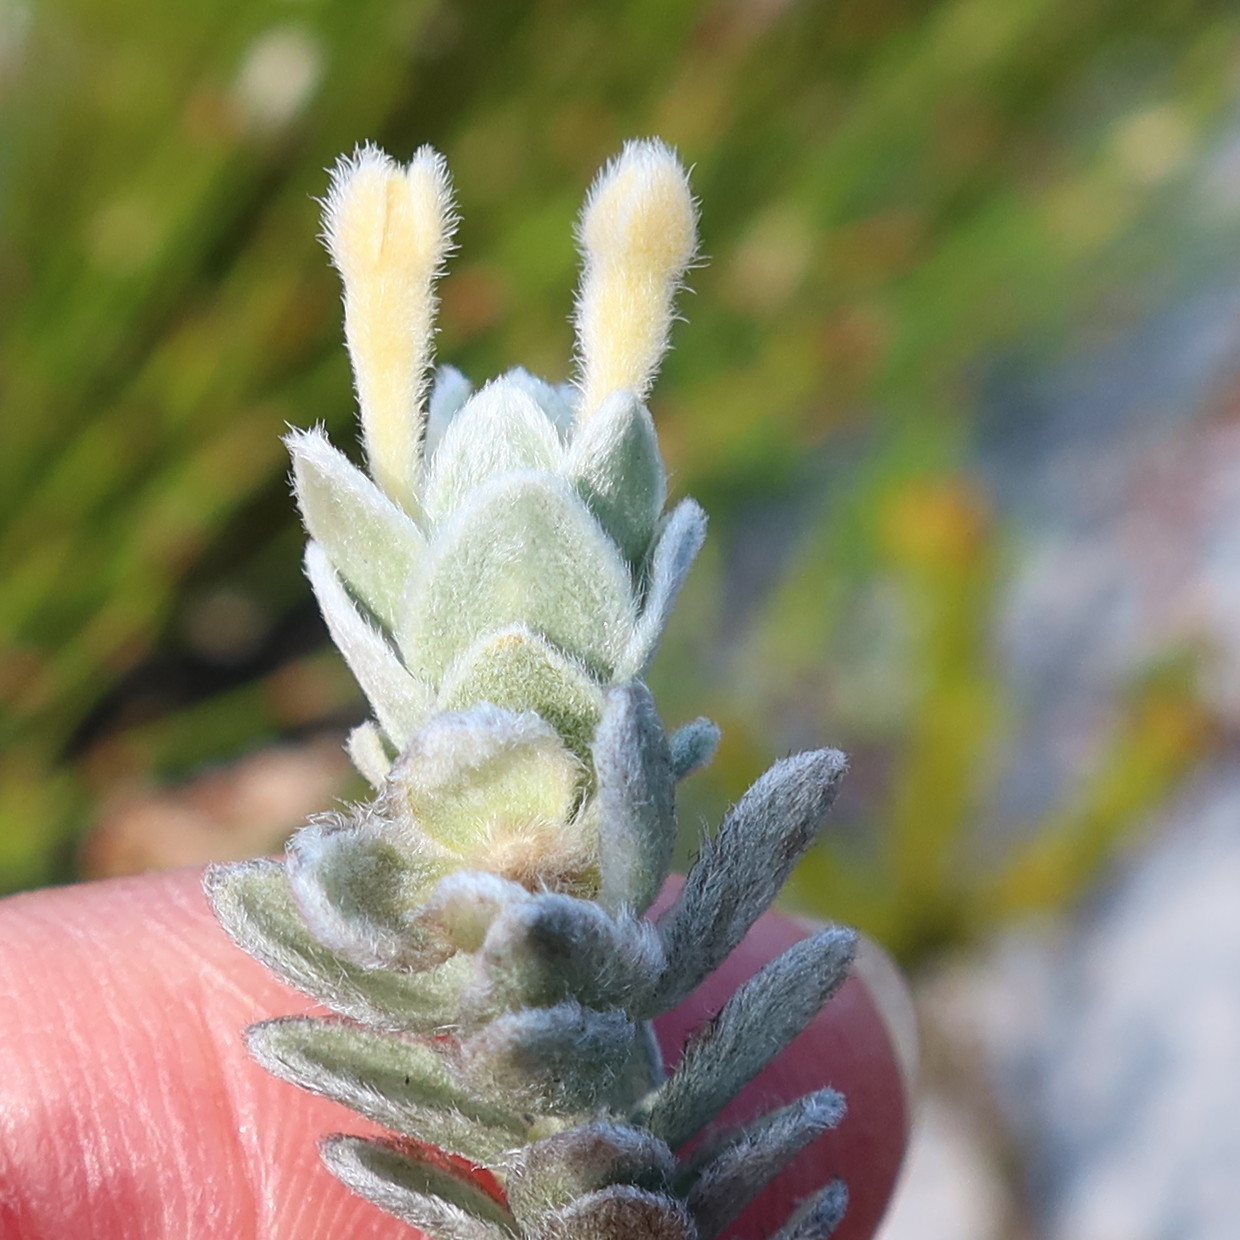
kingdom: Plantae
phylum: Tracheophyta
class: Magnoliopsida
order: Malvales
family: Thymelaeaceae
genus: Gnidia
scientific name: Gnidia imbricata
